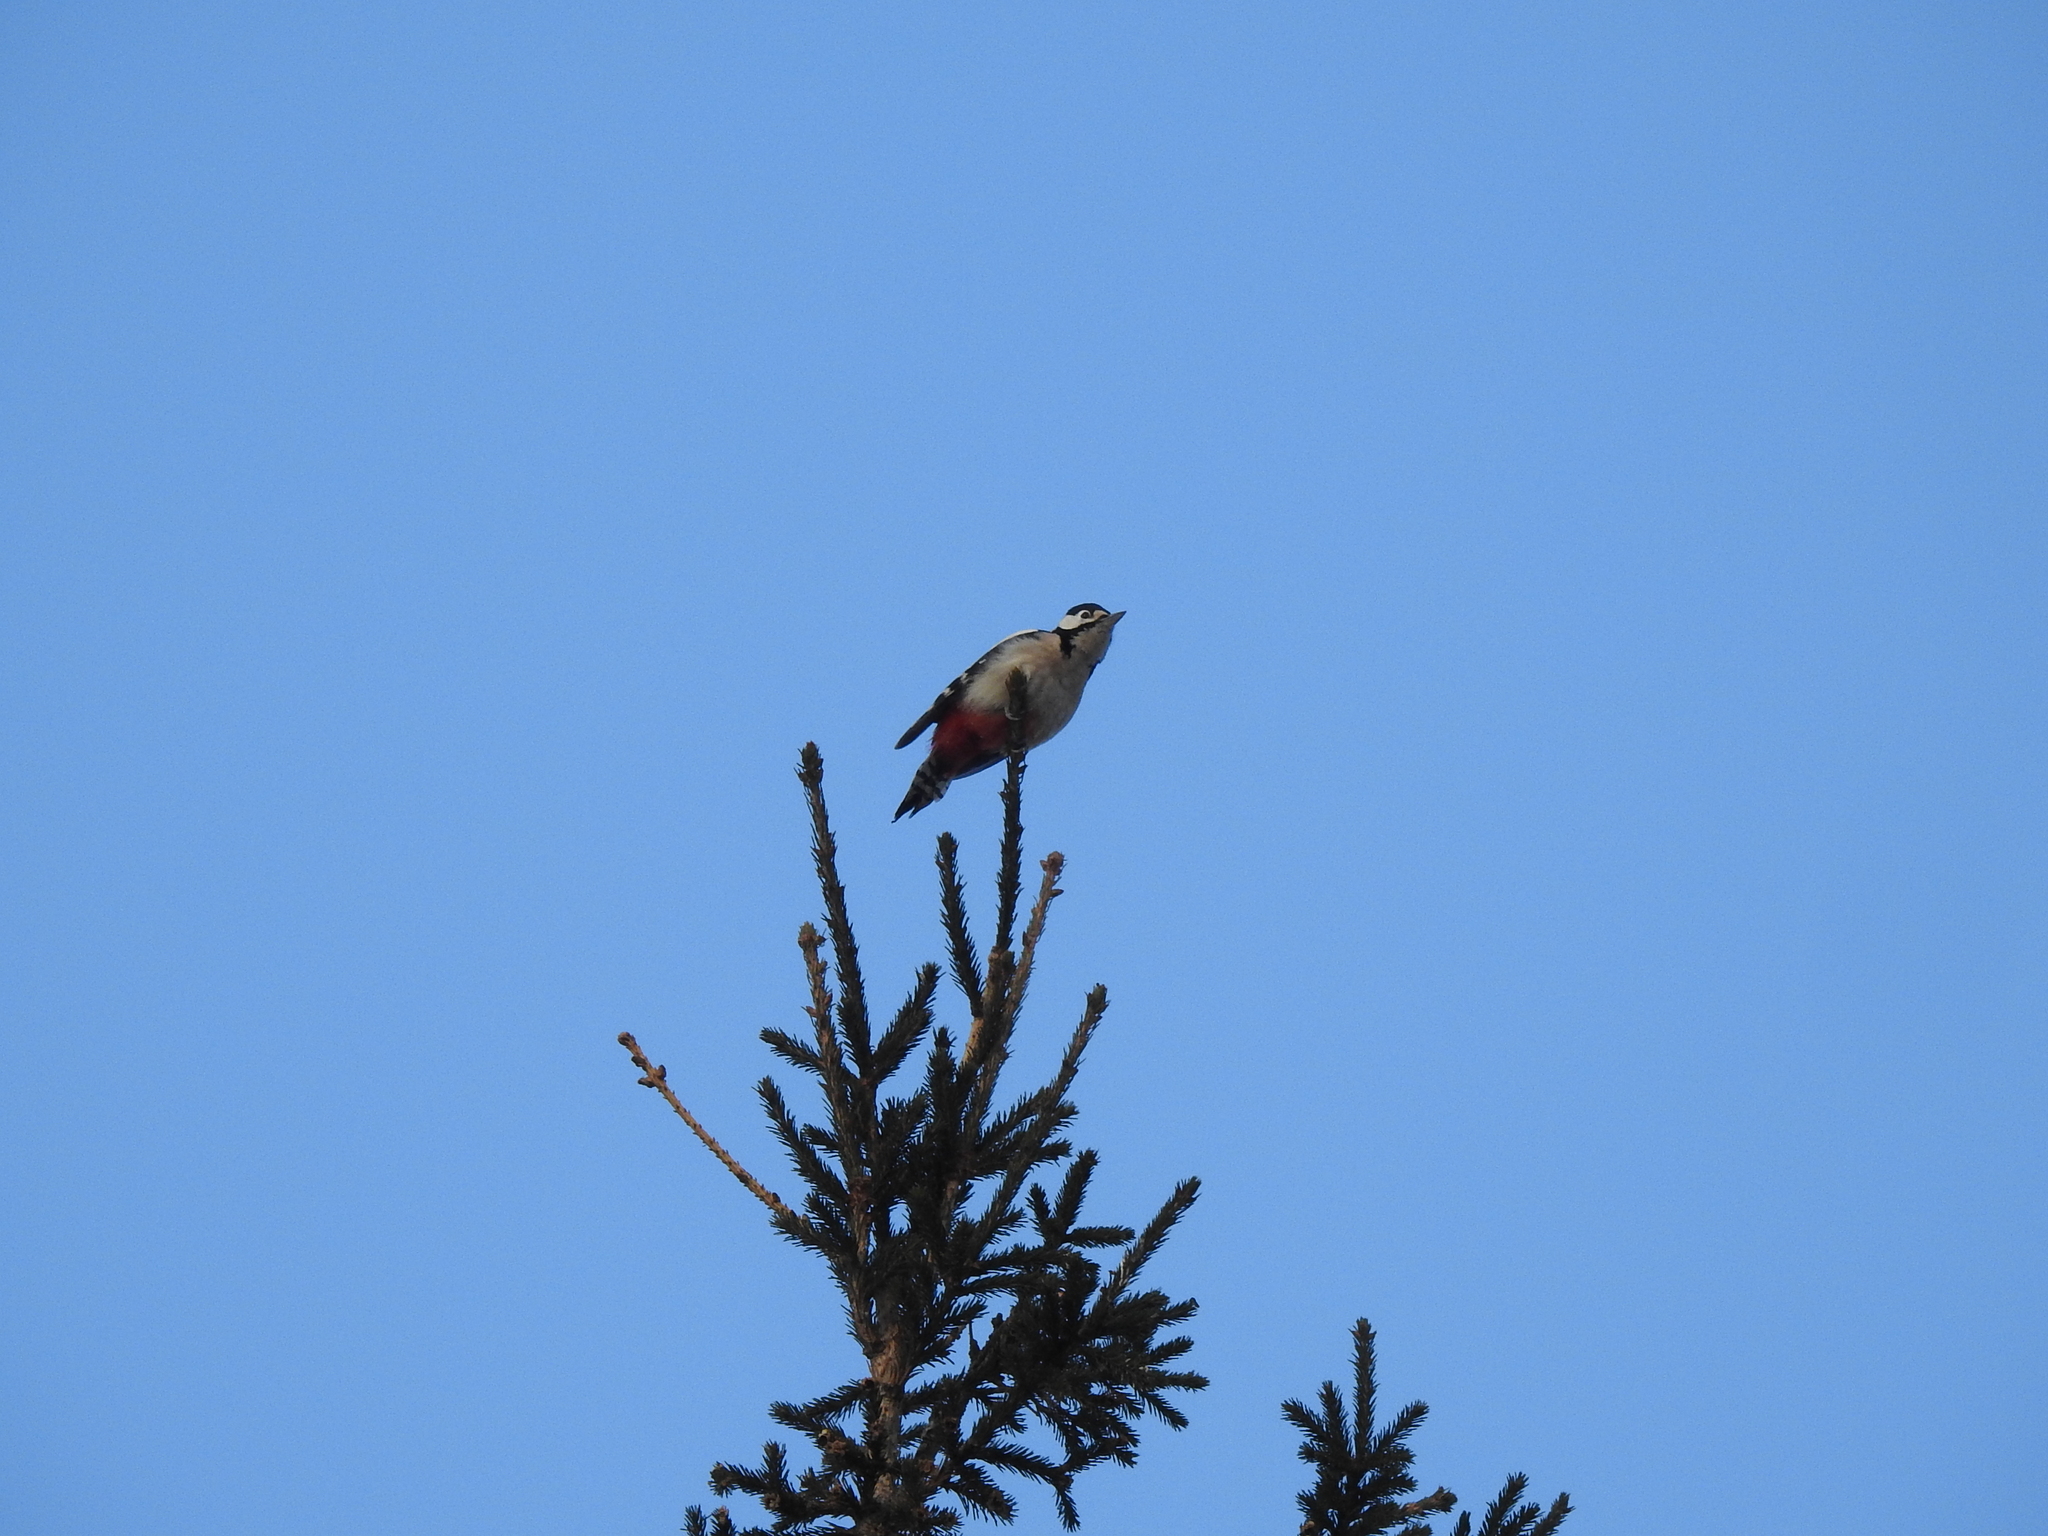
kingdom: Animalia
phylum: Chordata
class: Aves
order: Piciformes
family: Picidae
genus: Dendrocopos
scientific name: Dendrocopos major
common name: Great spotted woodpecker
